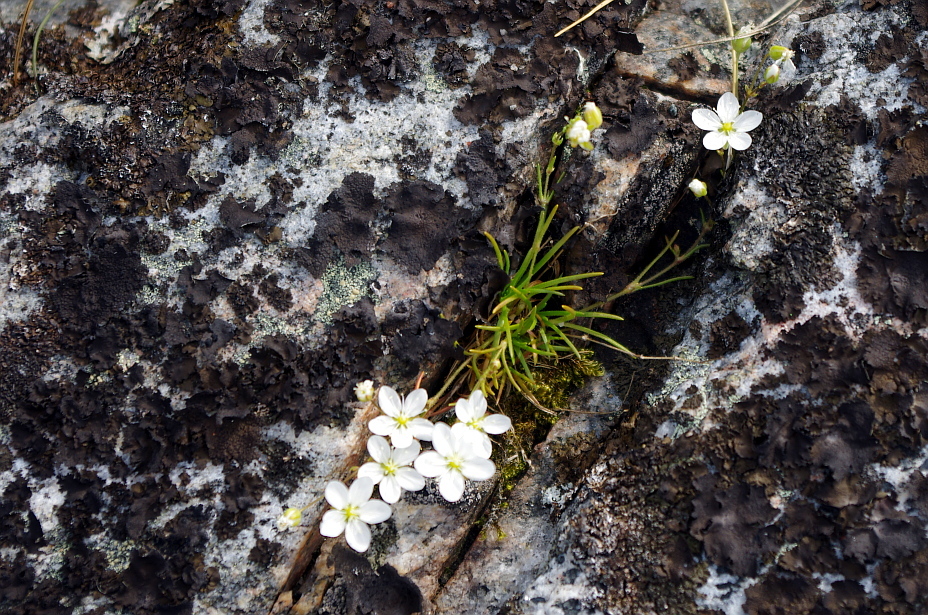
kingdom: Plantae
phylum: Tracheophyta
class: Magnoliopsida
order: Caryophyllales
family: Caryophyllaceae
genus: Sagina
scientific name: Sagina nodosa
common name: Knotted pearlwort
